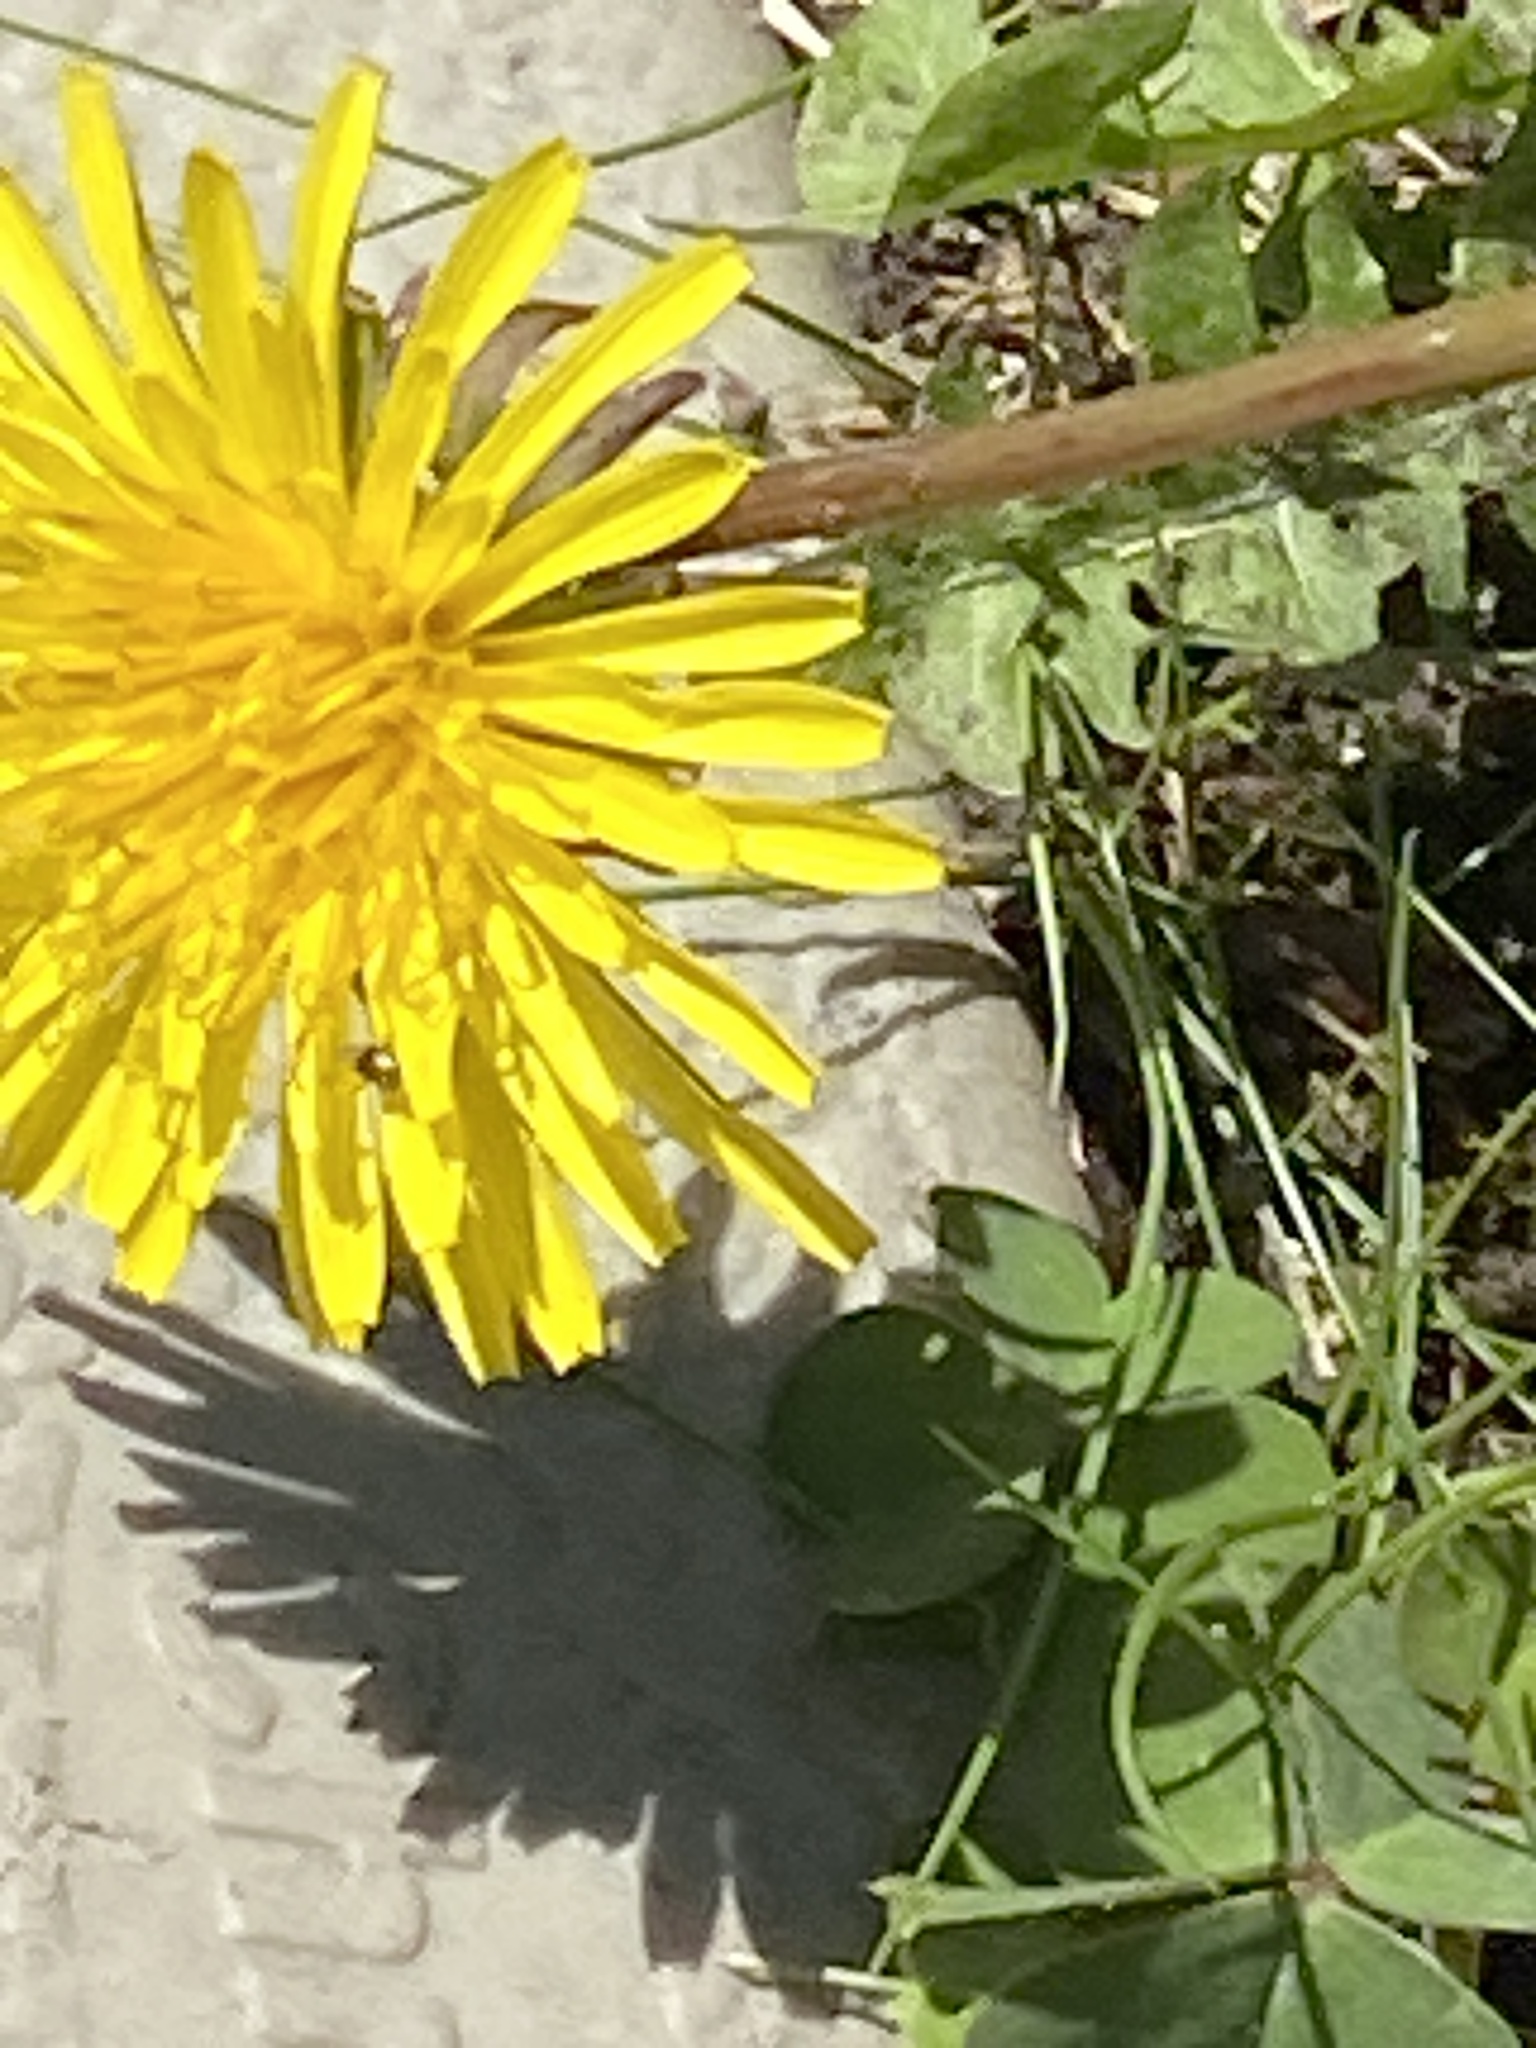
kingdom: Plantae
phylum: Tracheophyta
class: Magnoliopsida
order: Asterales
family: Asteraceae
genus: Taraxacum
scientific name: Taraxacum officinale
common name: Common dandelion
